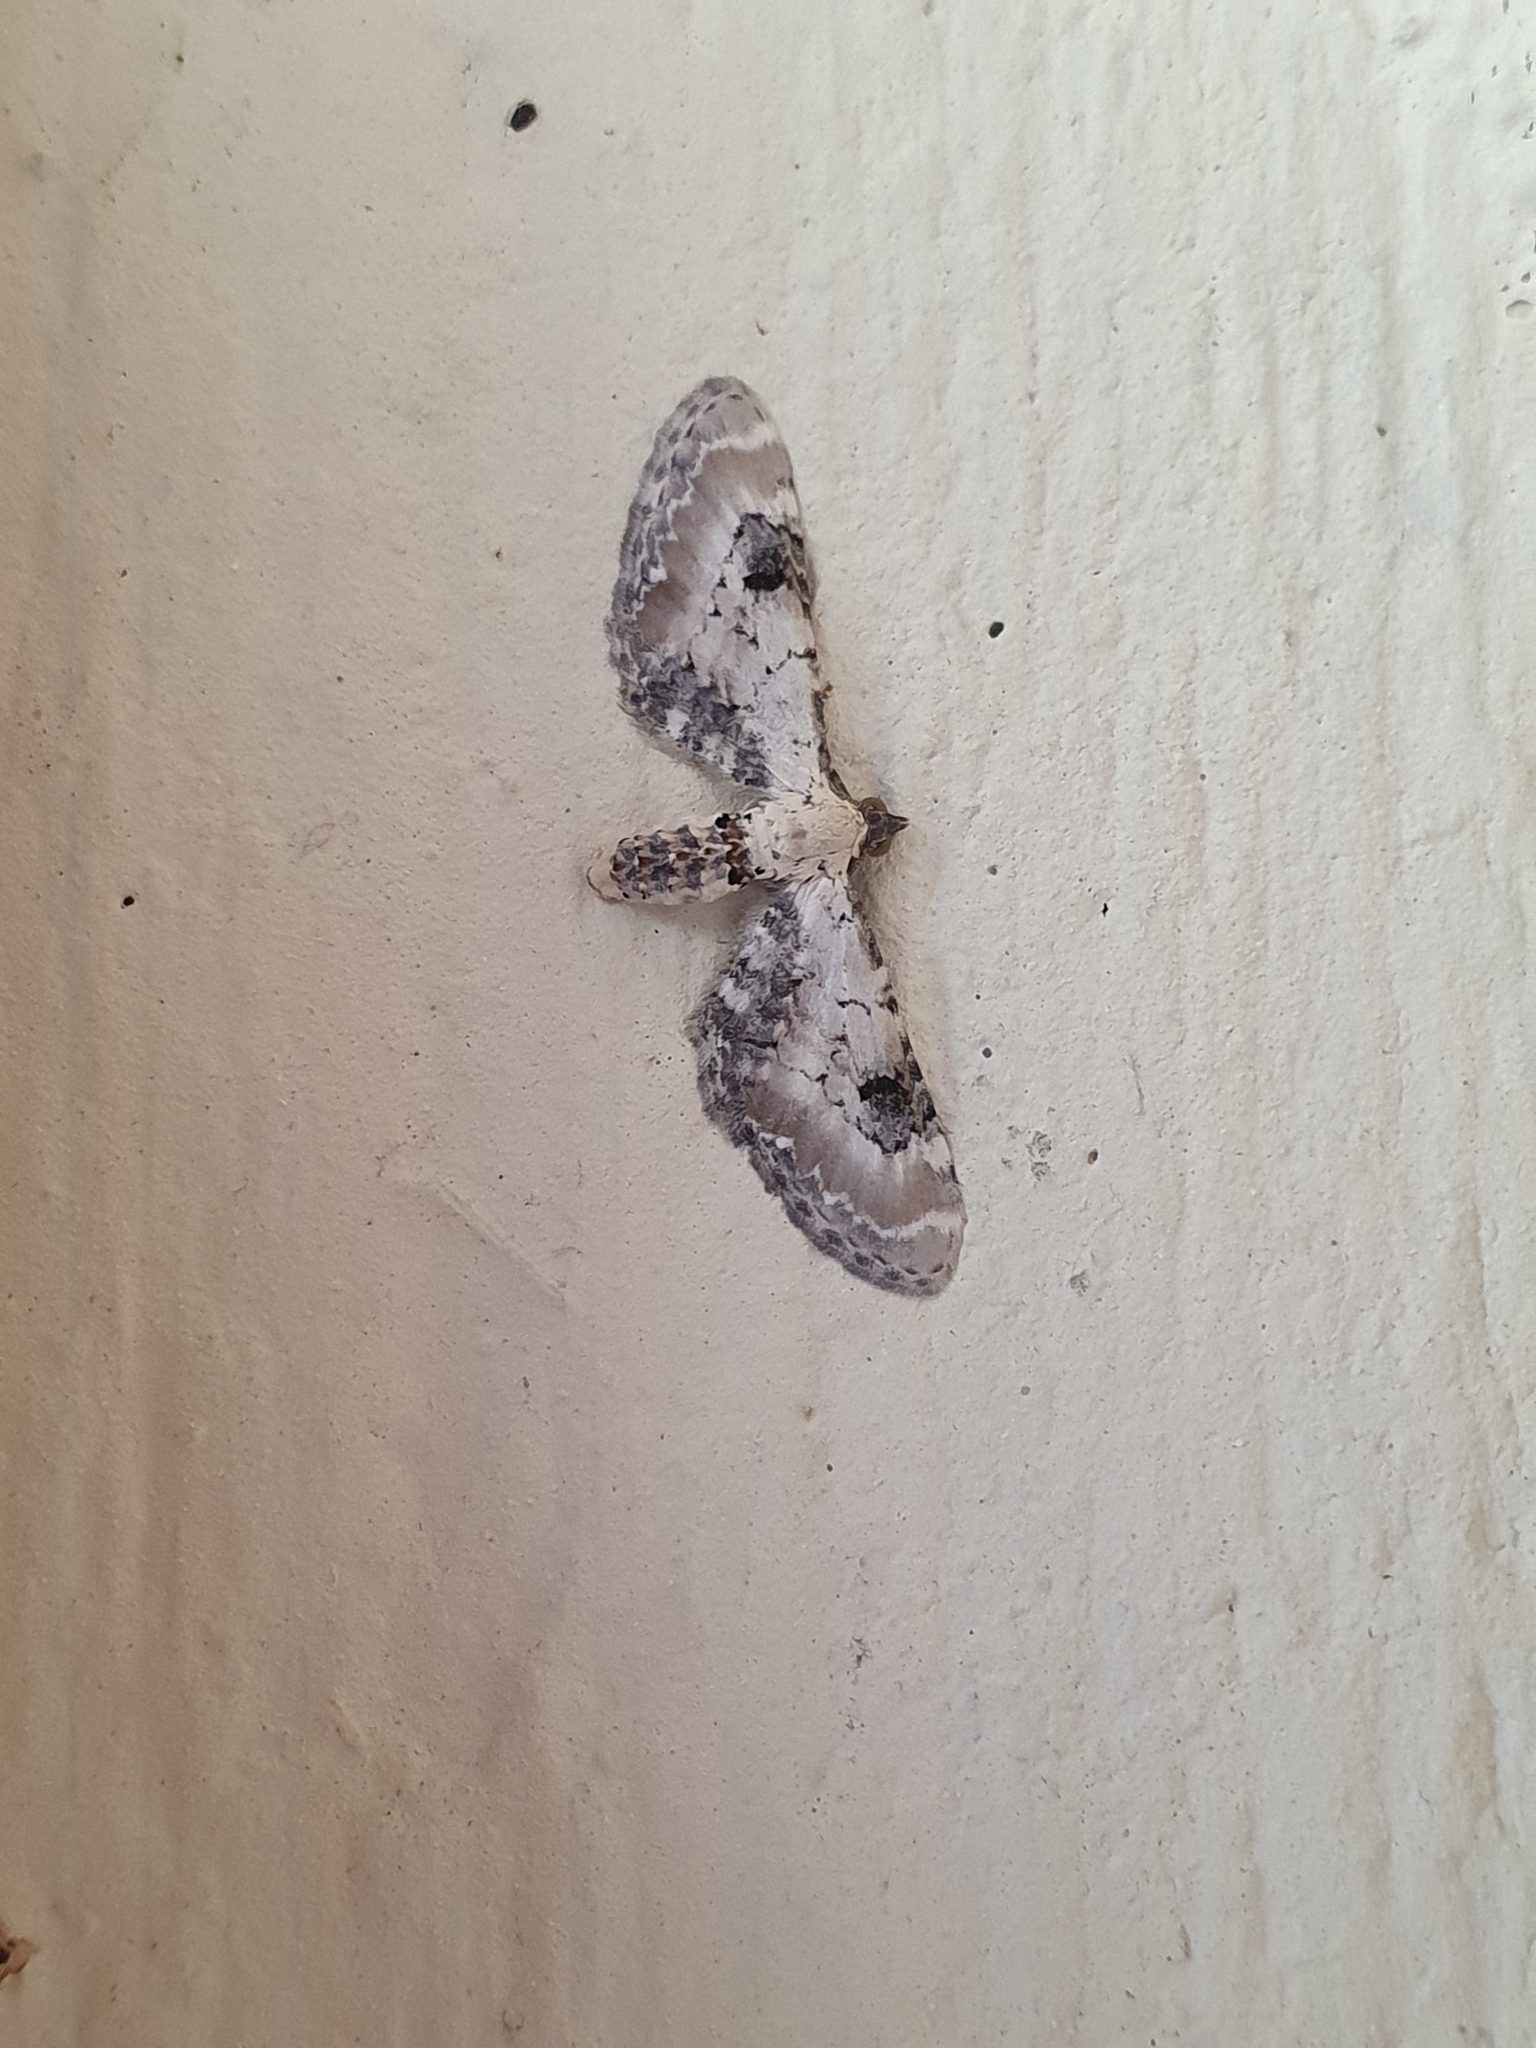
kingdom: Animalia
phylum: Arthropoda
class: Insecta
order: Lepidoptera
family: Geometridae
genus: Eupithecia
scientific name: Eupithecia centaureata
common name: Lime-speck pug
